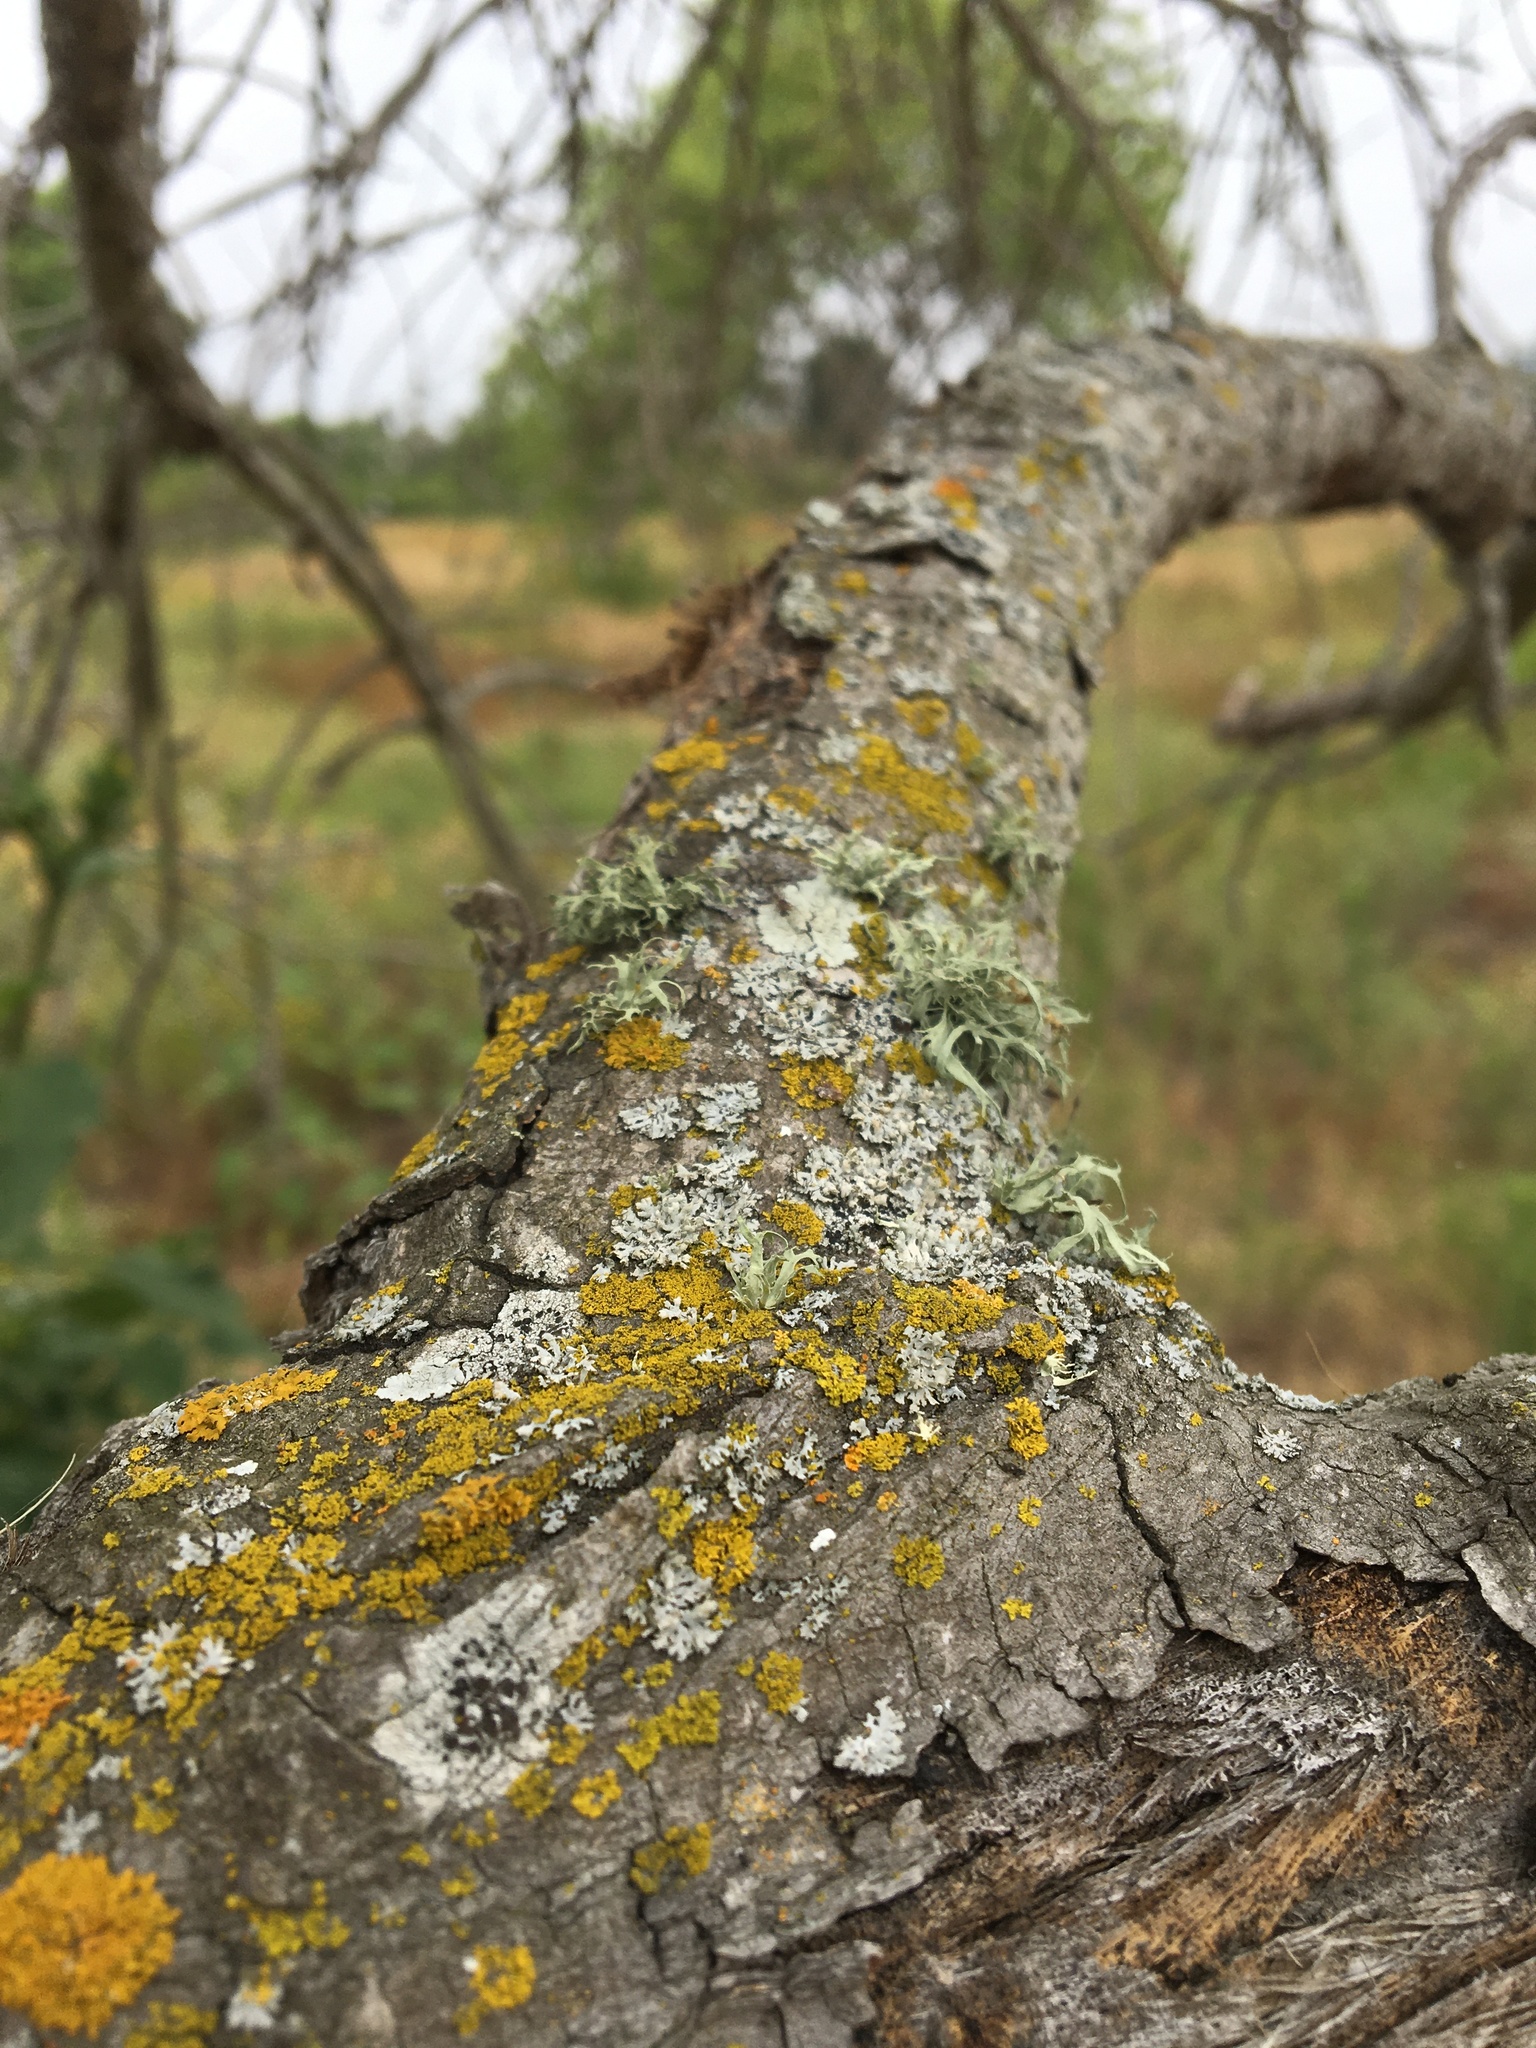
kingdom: Fungi
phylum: Ascomycota
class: Lecanoromycetes
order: Lecanorales
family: Ramalinaceae
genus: Ramalina
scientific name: Ramalina farinacea
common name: Farinose cartilage lichen
